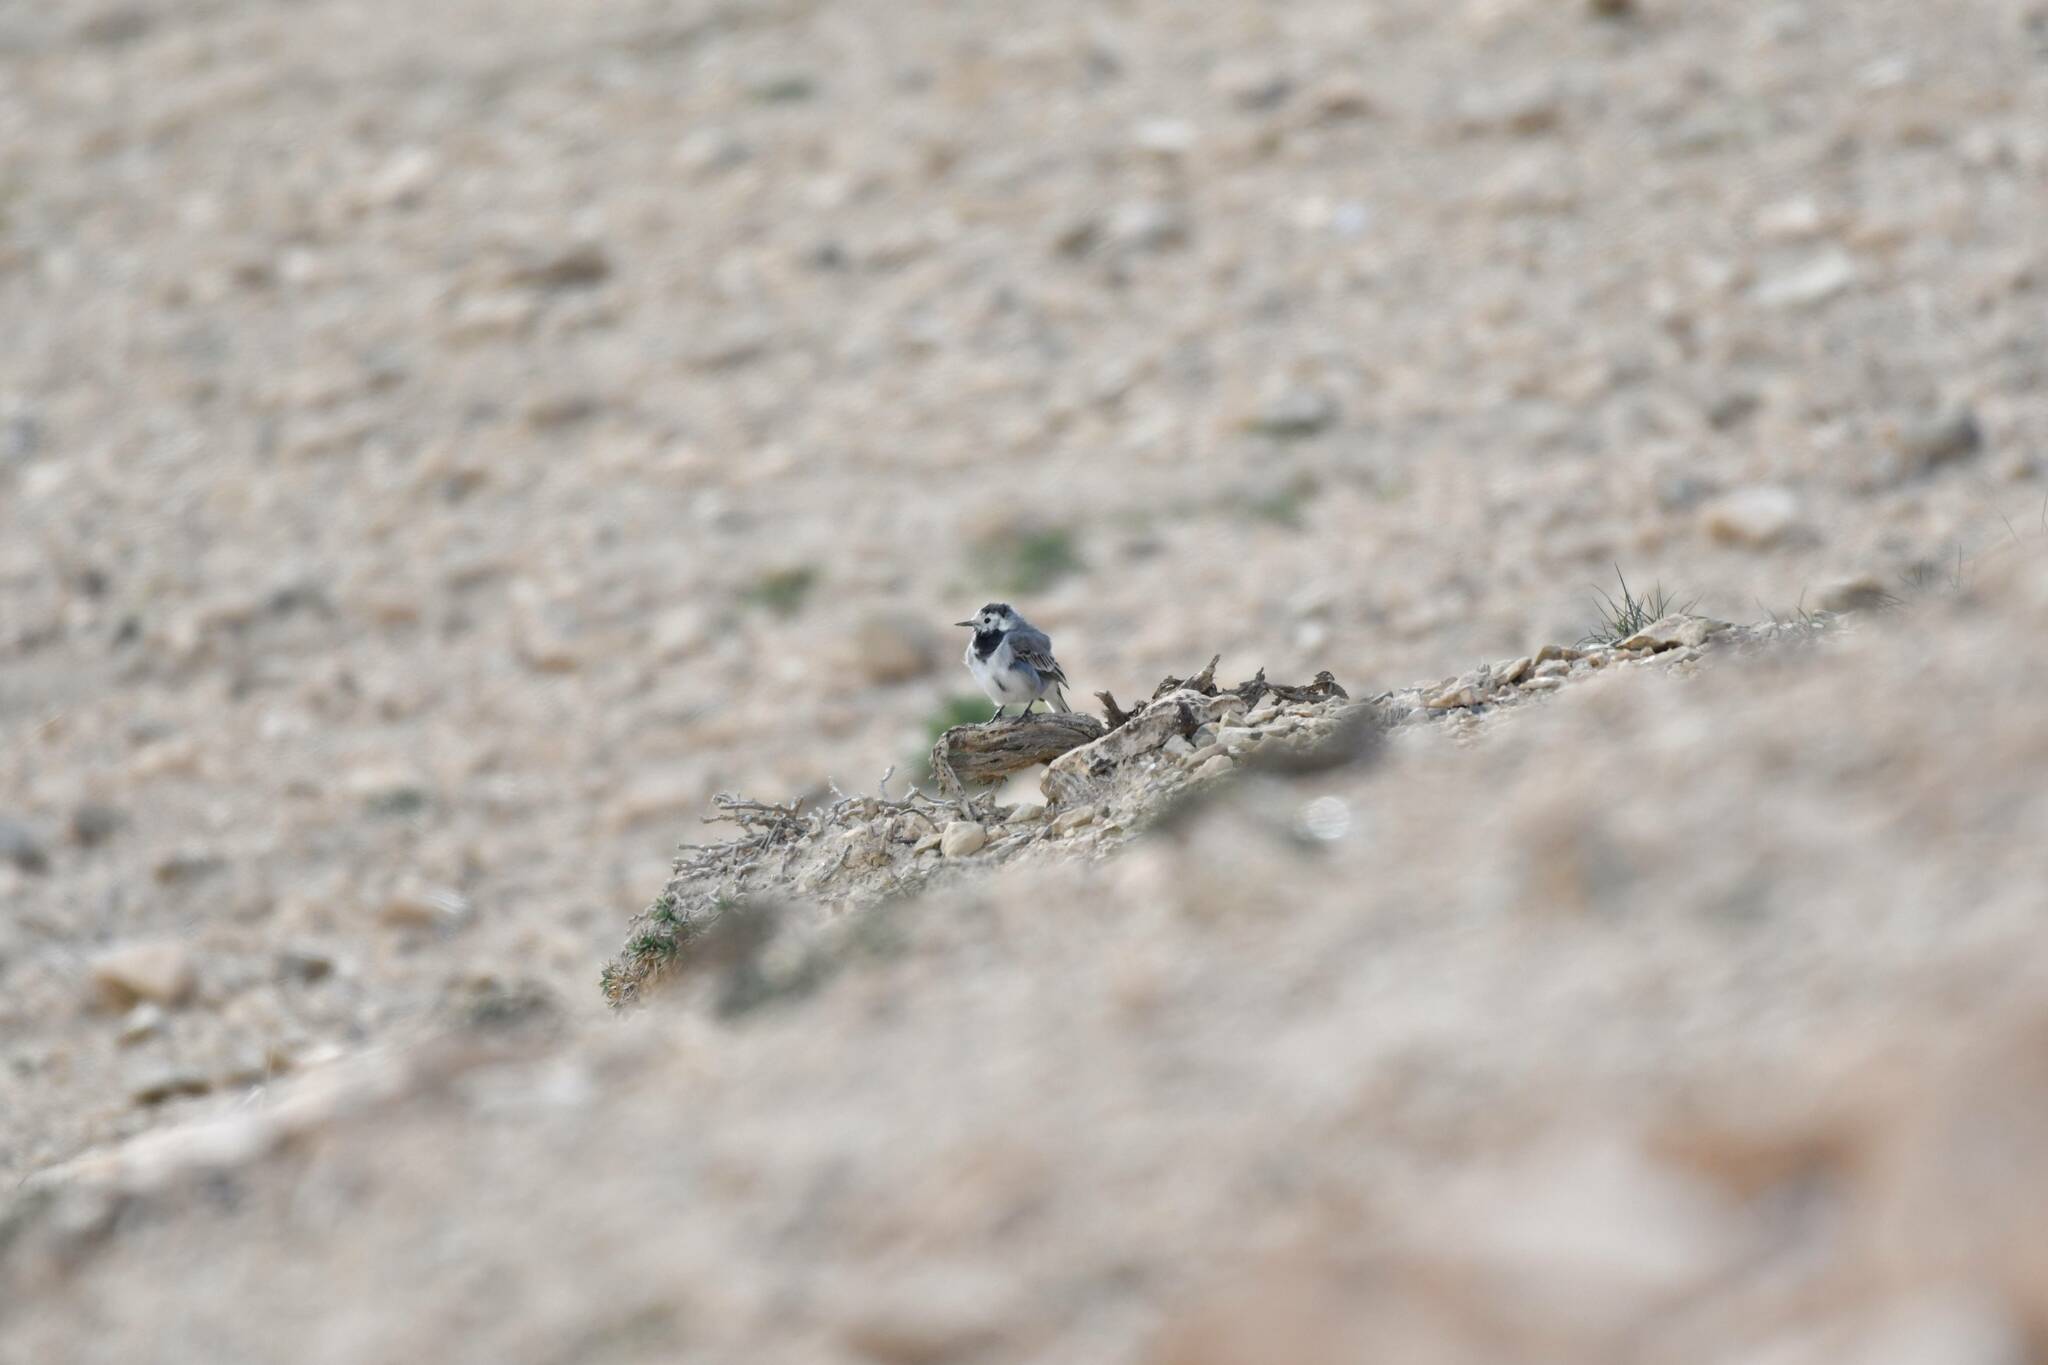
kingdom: Animalia
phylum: Chordata
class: Aves
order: Passeriformes
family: Motacillidae
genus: Motacilla
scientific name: Motacilla alba
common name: White wagtail
